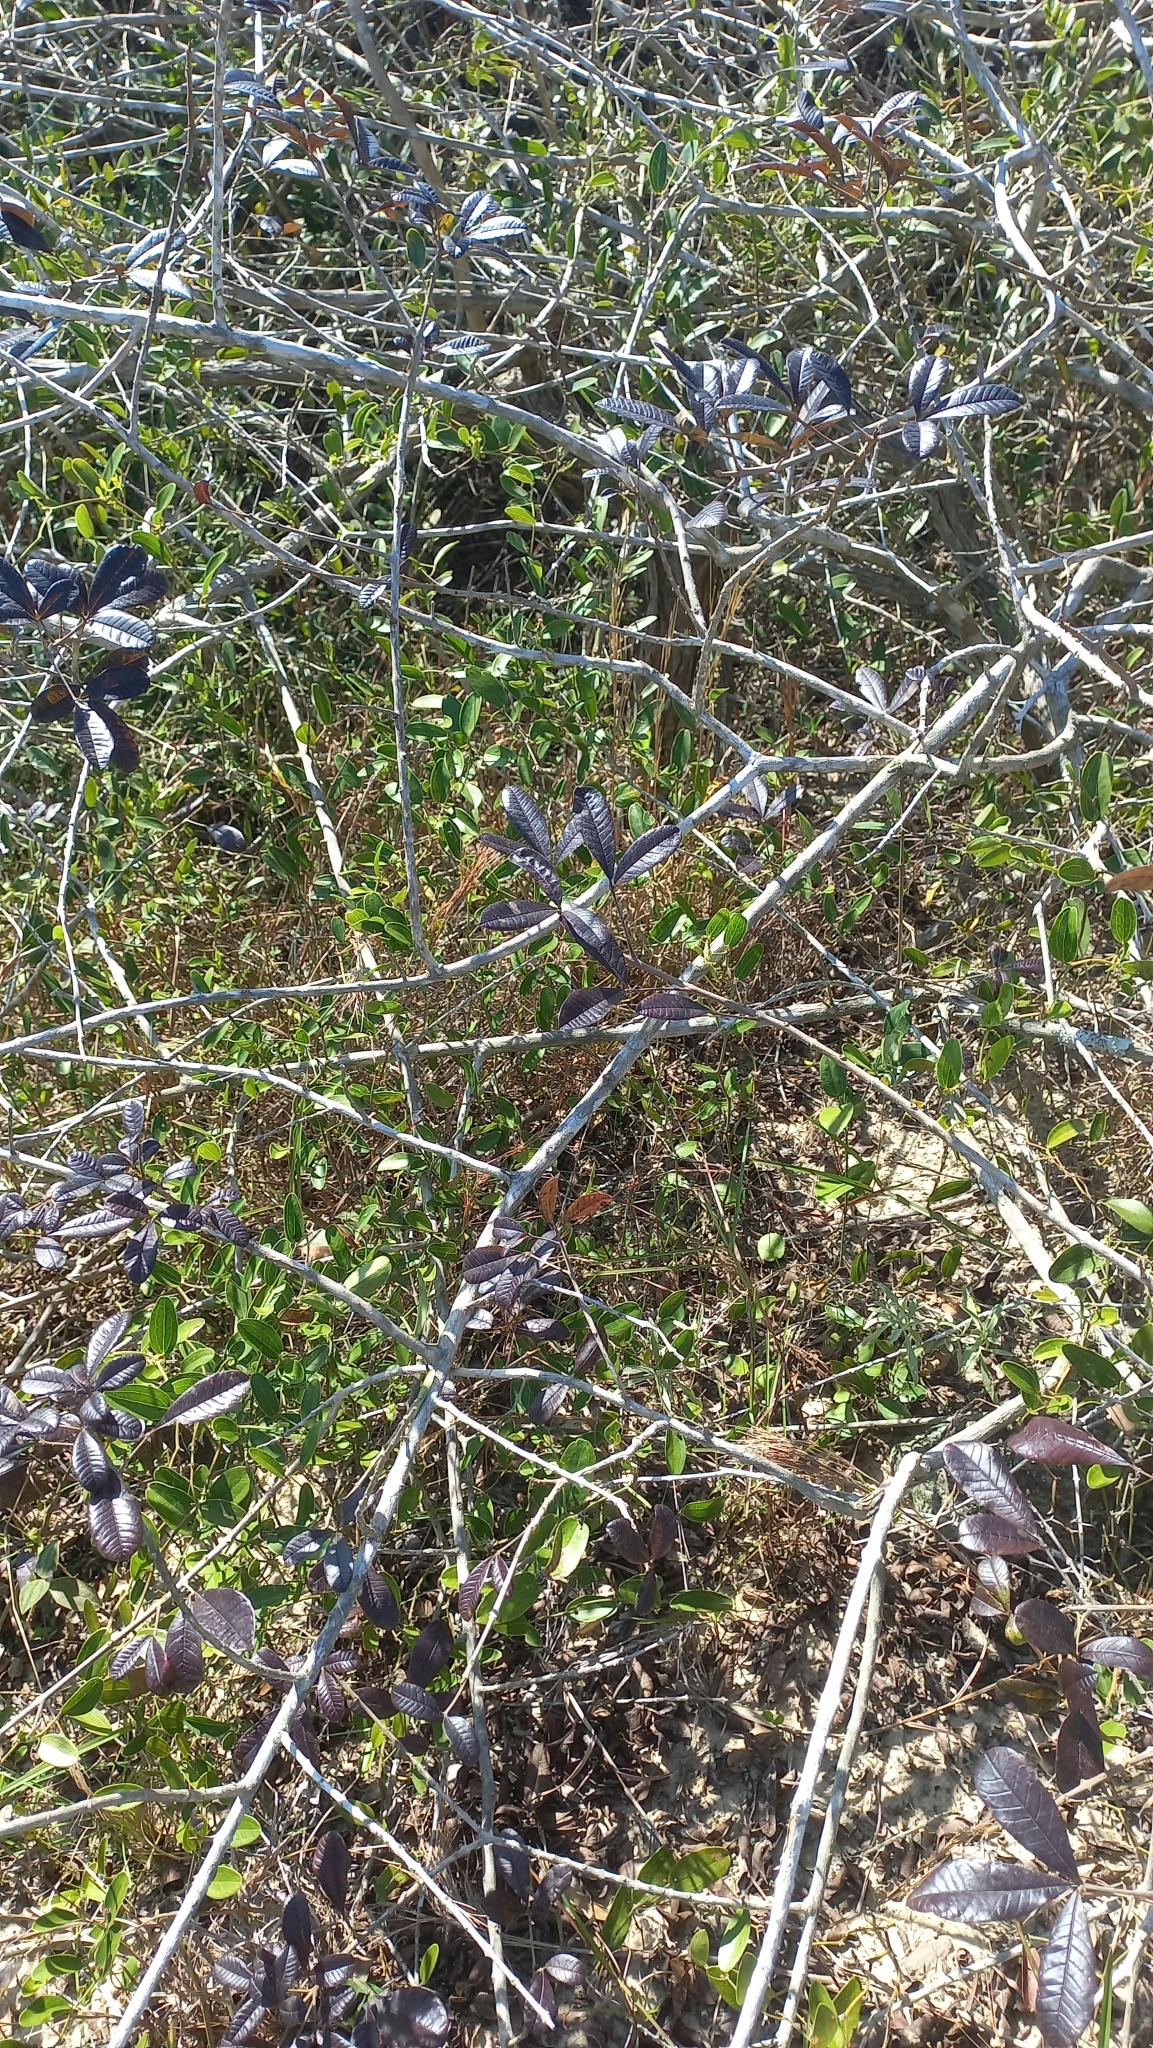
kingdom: Plantae
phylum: Tracheophyta
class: Magnoliopsida
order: Lamiales
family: Lamiaceae
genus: Vitex
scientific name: Vitex megapotamica
